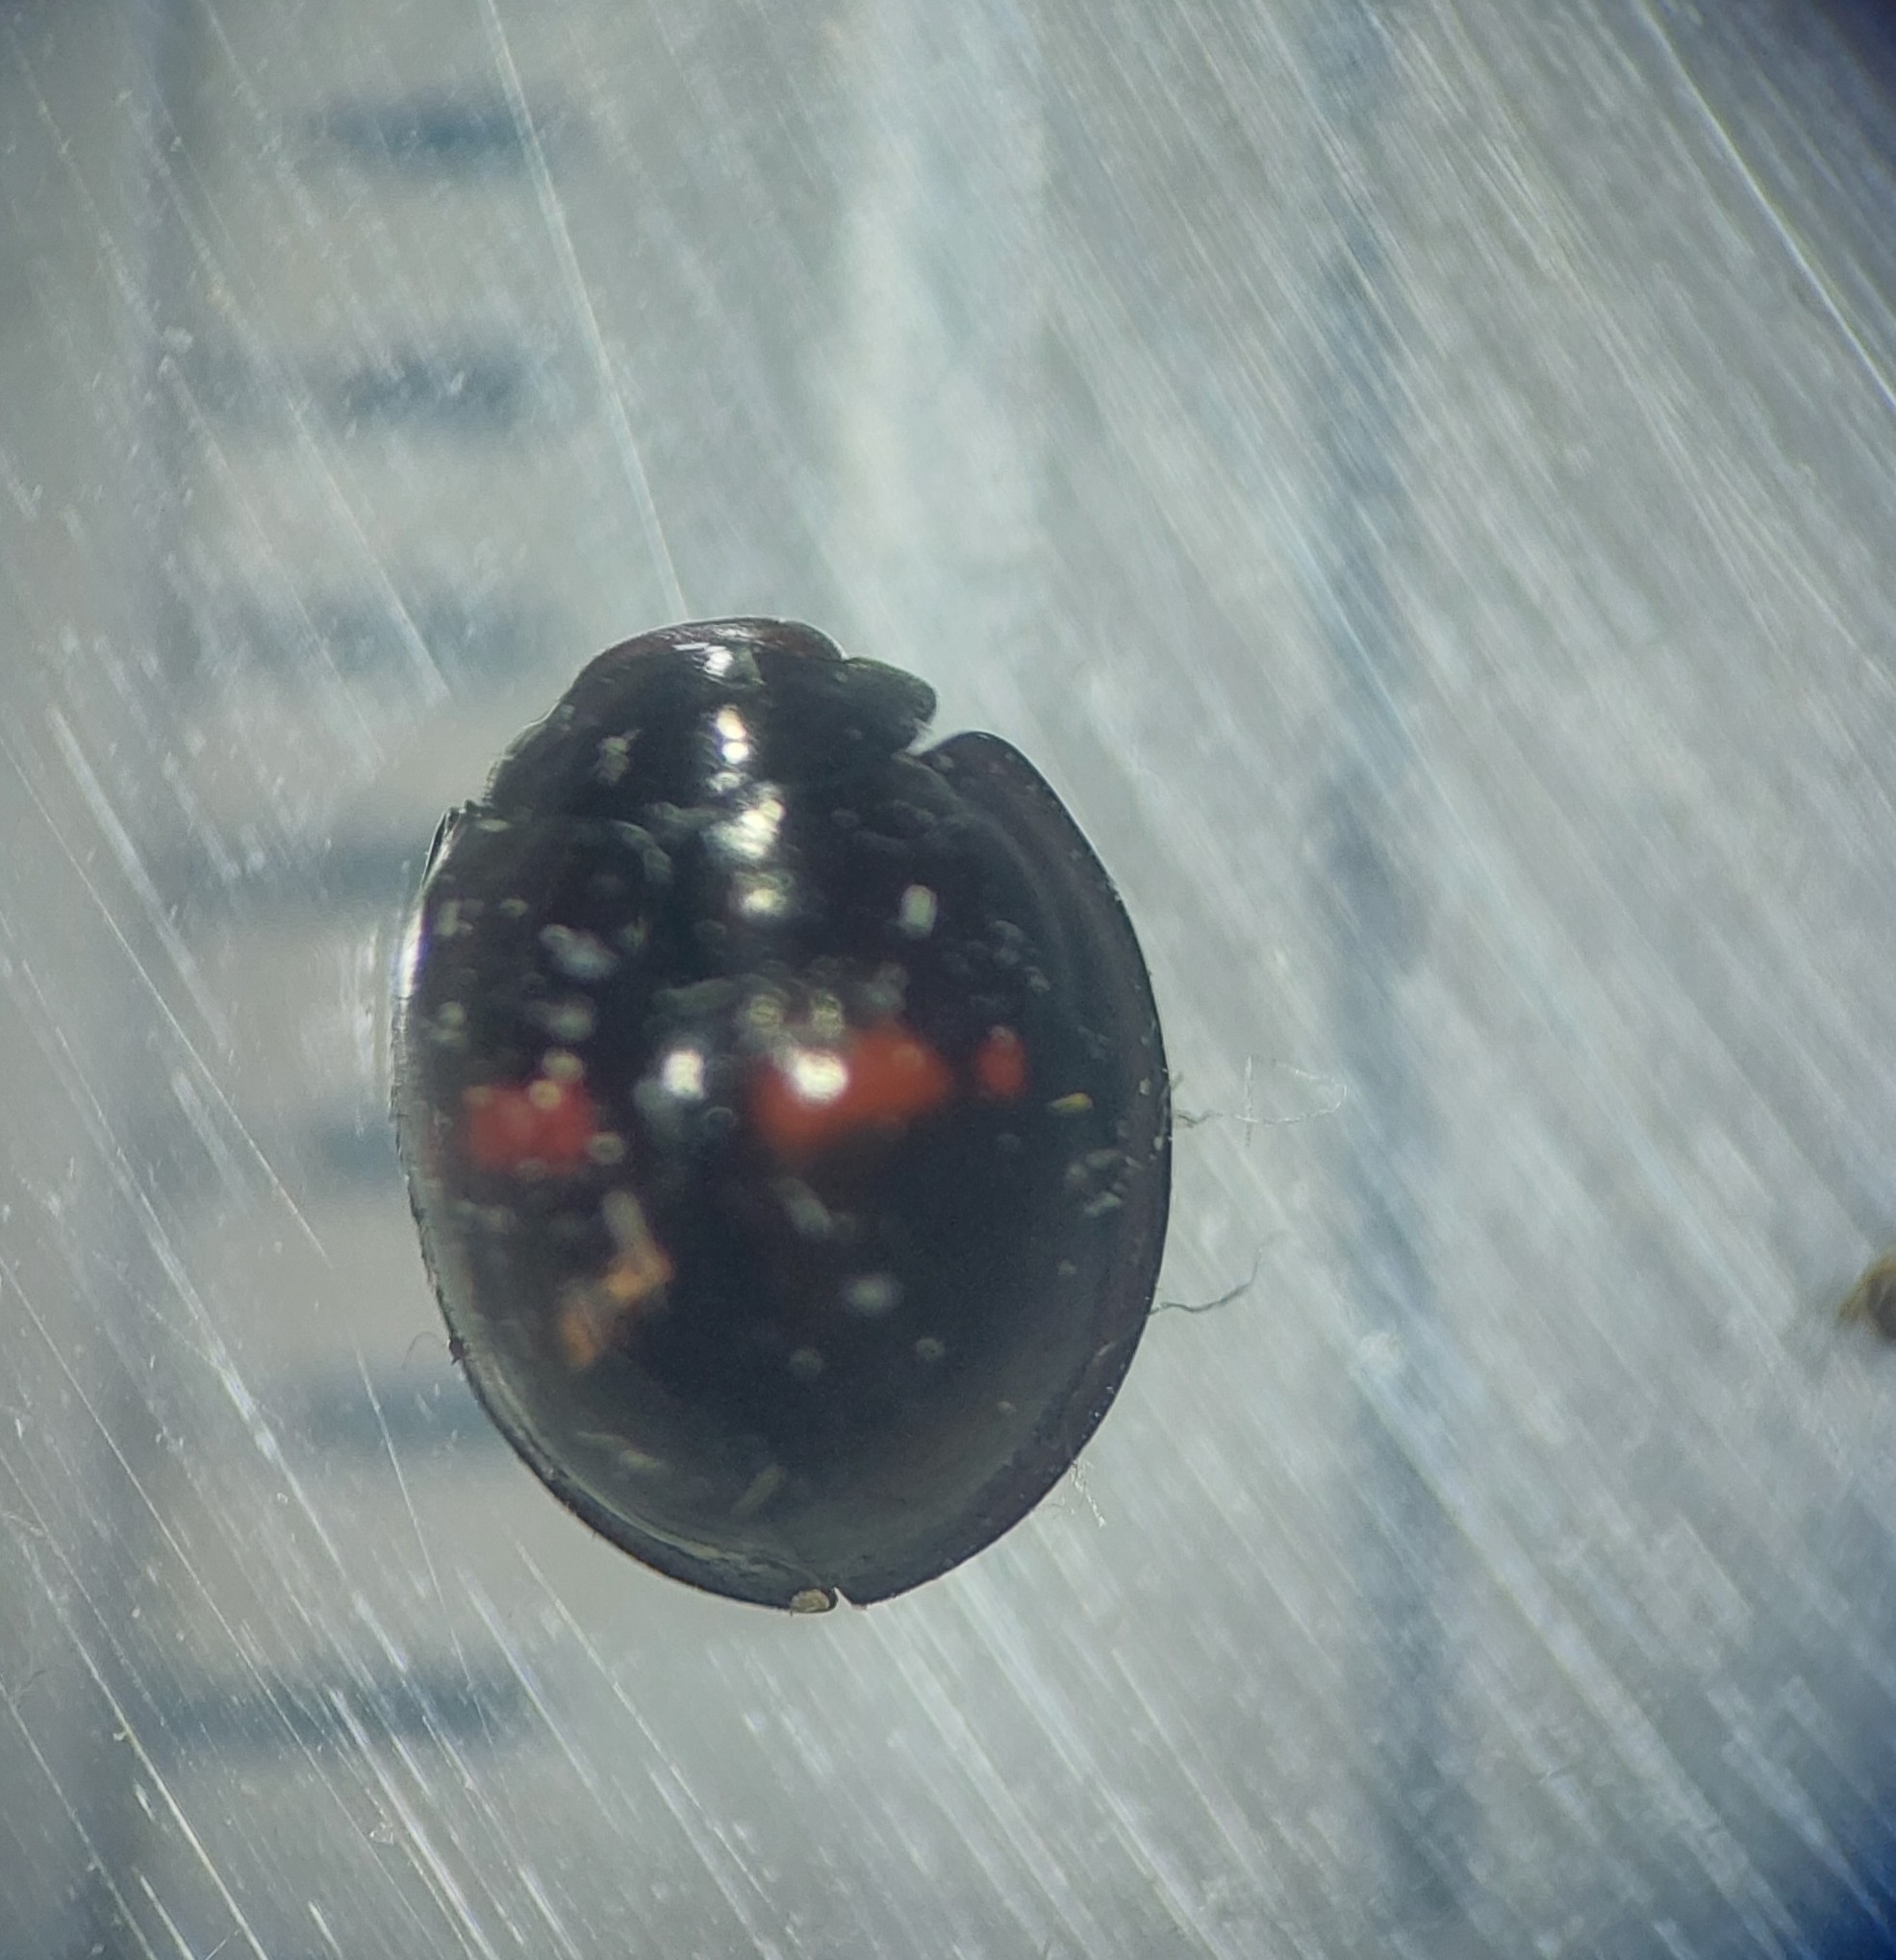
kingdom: Animalia
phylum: Arthropoda
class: Insecta
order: Coleoptera
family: Coccinellidae
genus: Chilocorus
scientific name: Chilocorus bipustulatus
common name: Heather ladybird
